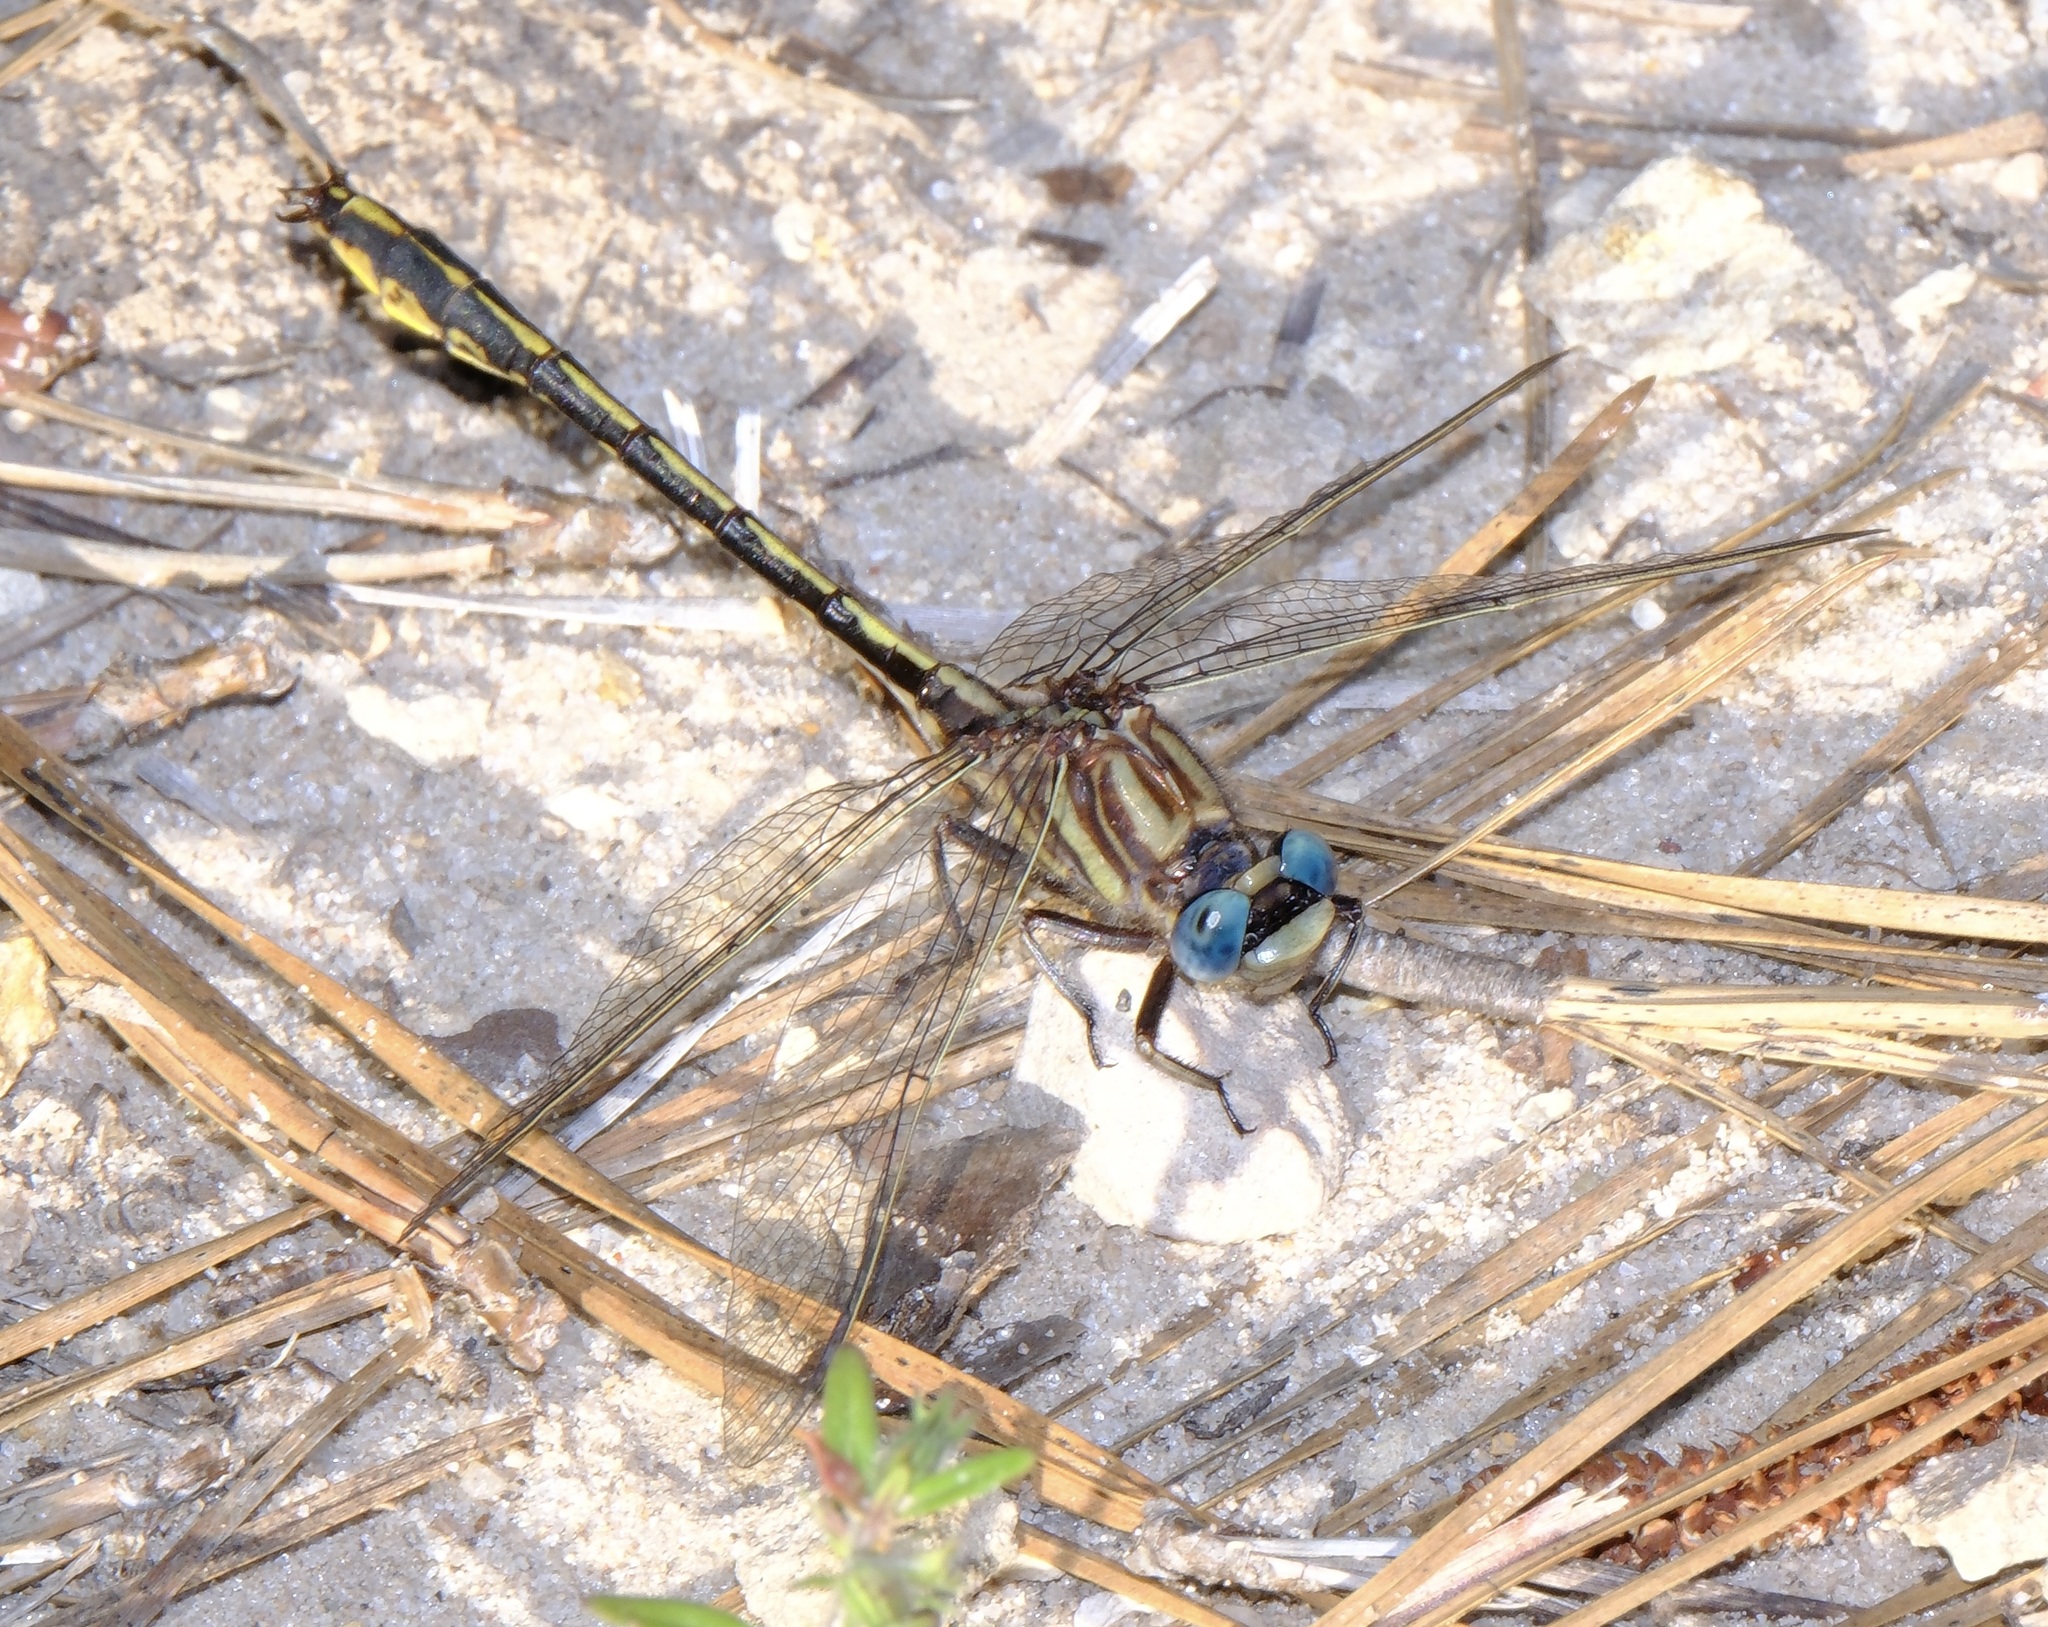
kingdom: Animalia
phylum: Arthropoda
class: Insecta
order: Odonata
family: Gomphidae
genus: Phanogomphus
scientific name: Phanogomphus oklahomensis
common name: Oklahoma clubtail
